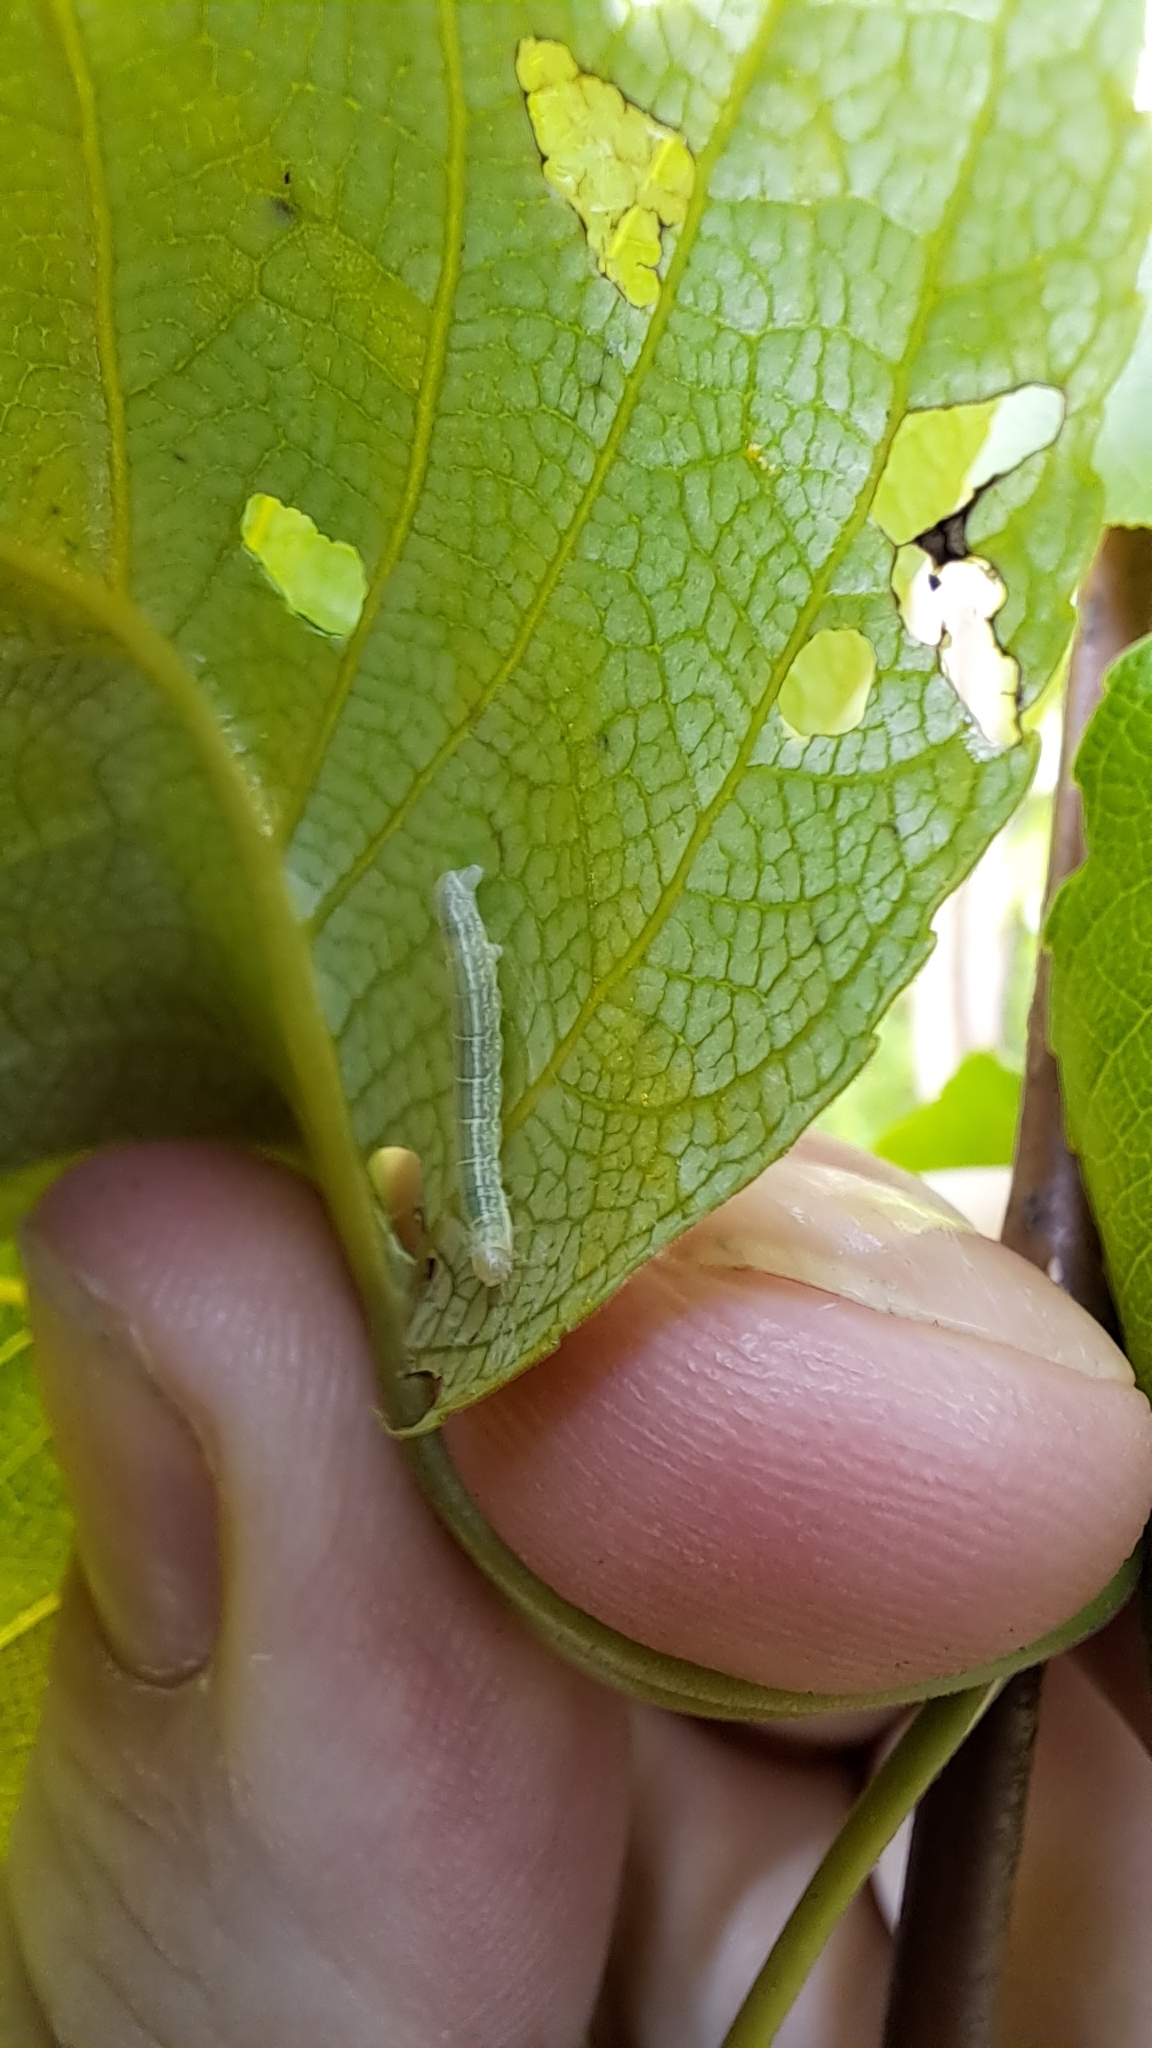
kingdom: Animalia
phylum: Arthropoda
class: Insecta
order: Lepidoptera
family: Geometridae
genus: Operophtera
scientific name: Operophtera brumata
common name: Winter moth
